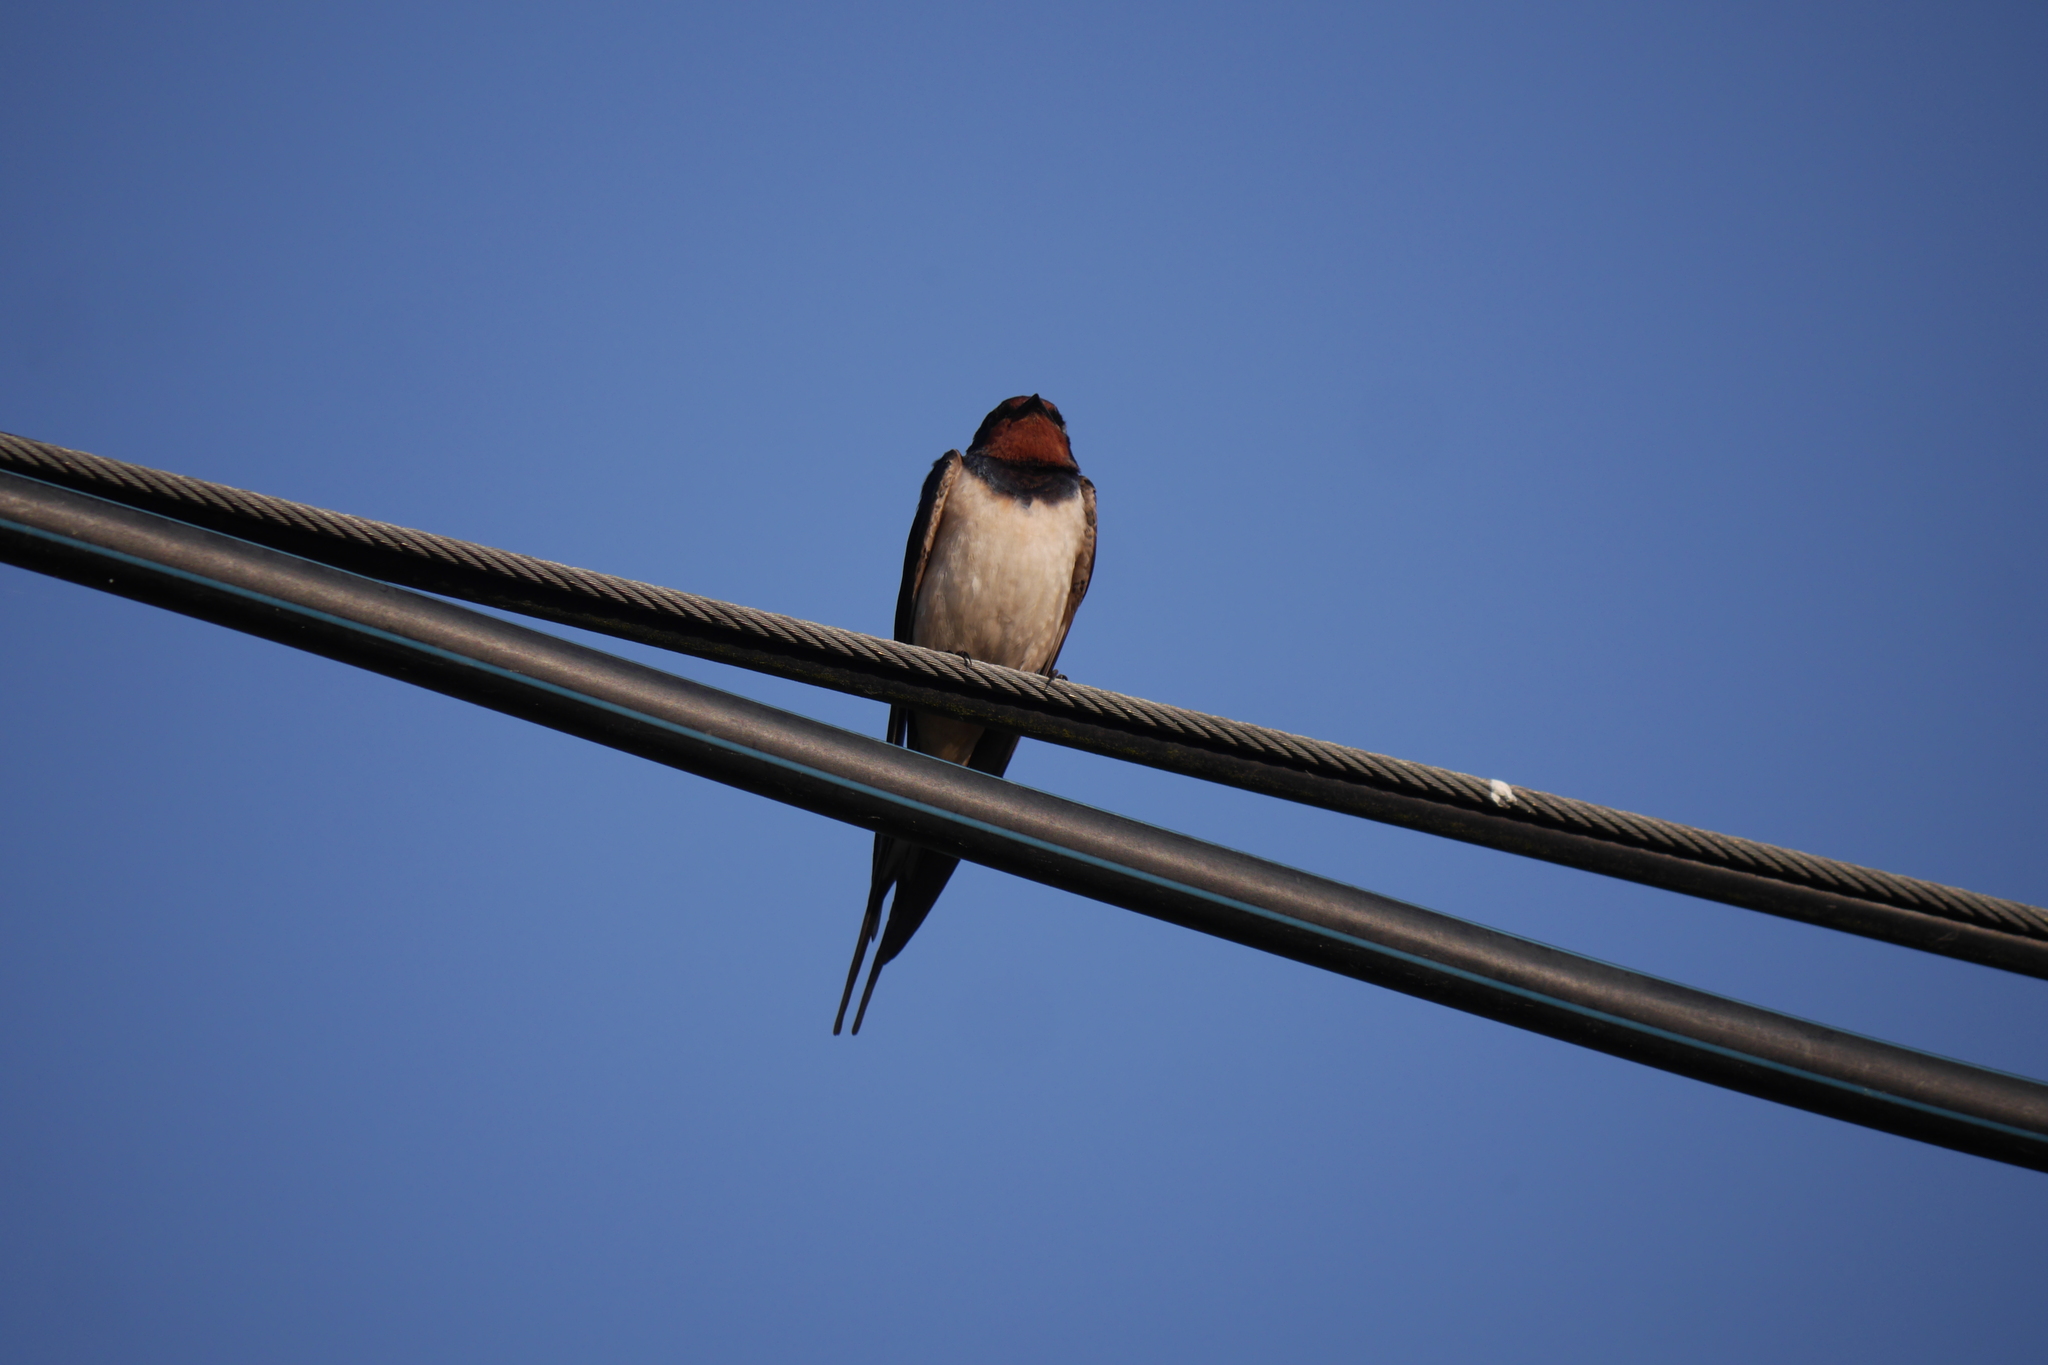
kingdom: Animalia
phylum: Chordata
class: Aves
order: Passeriformes
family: Hirundinidae
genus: Hirundo
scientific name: Hirundo rustica
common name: Barn swallow
